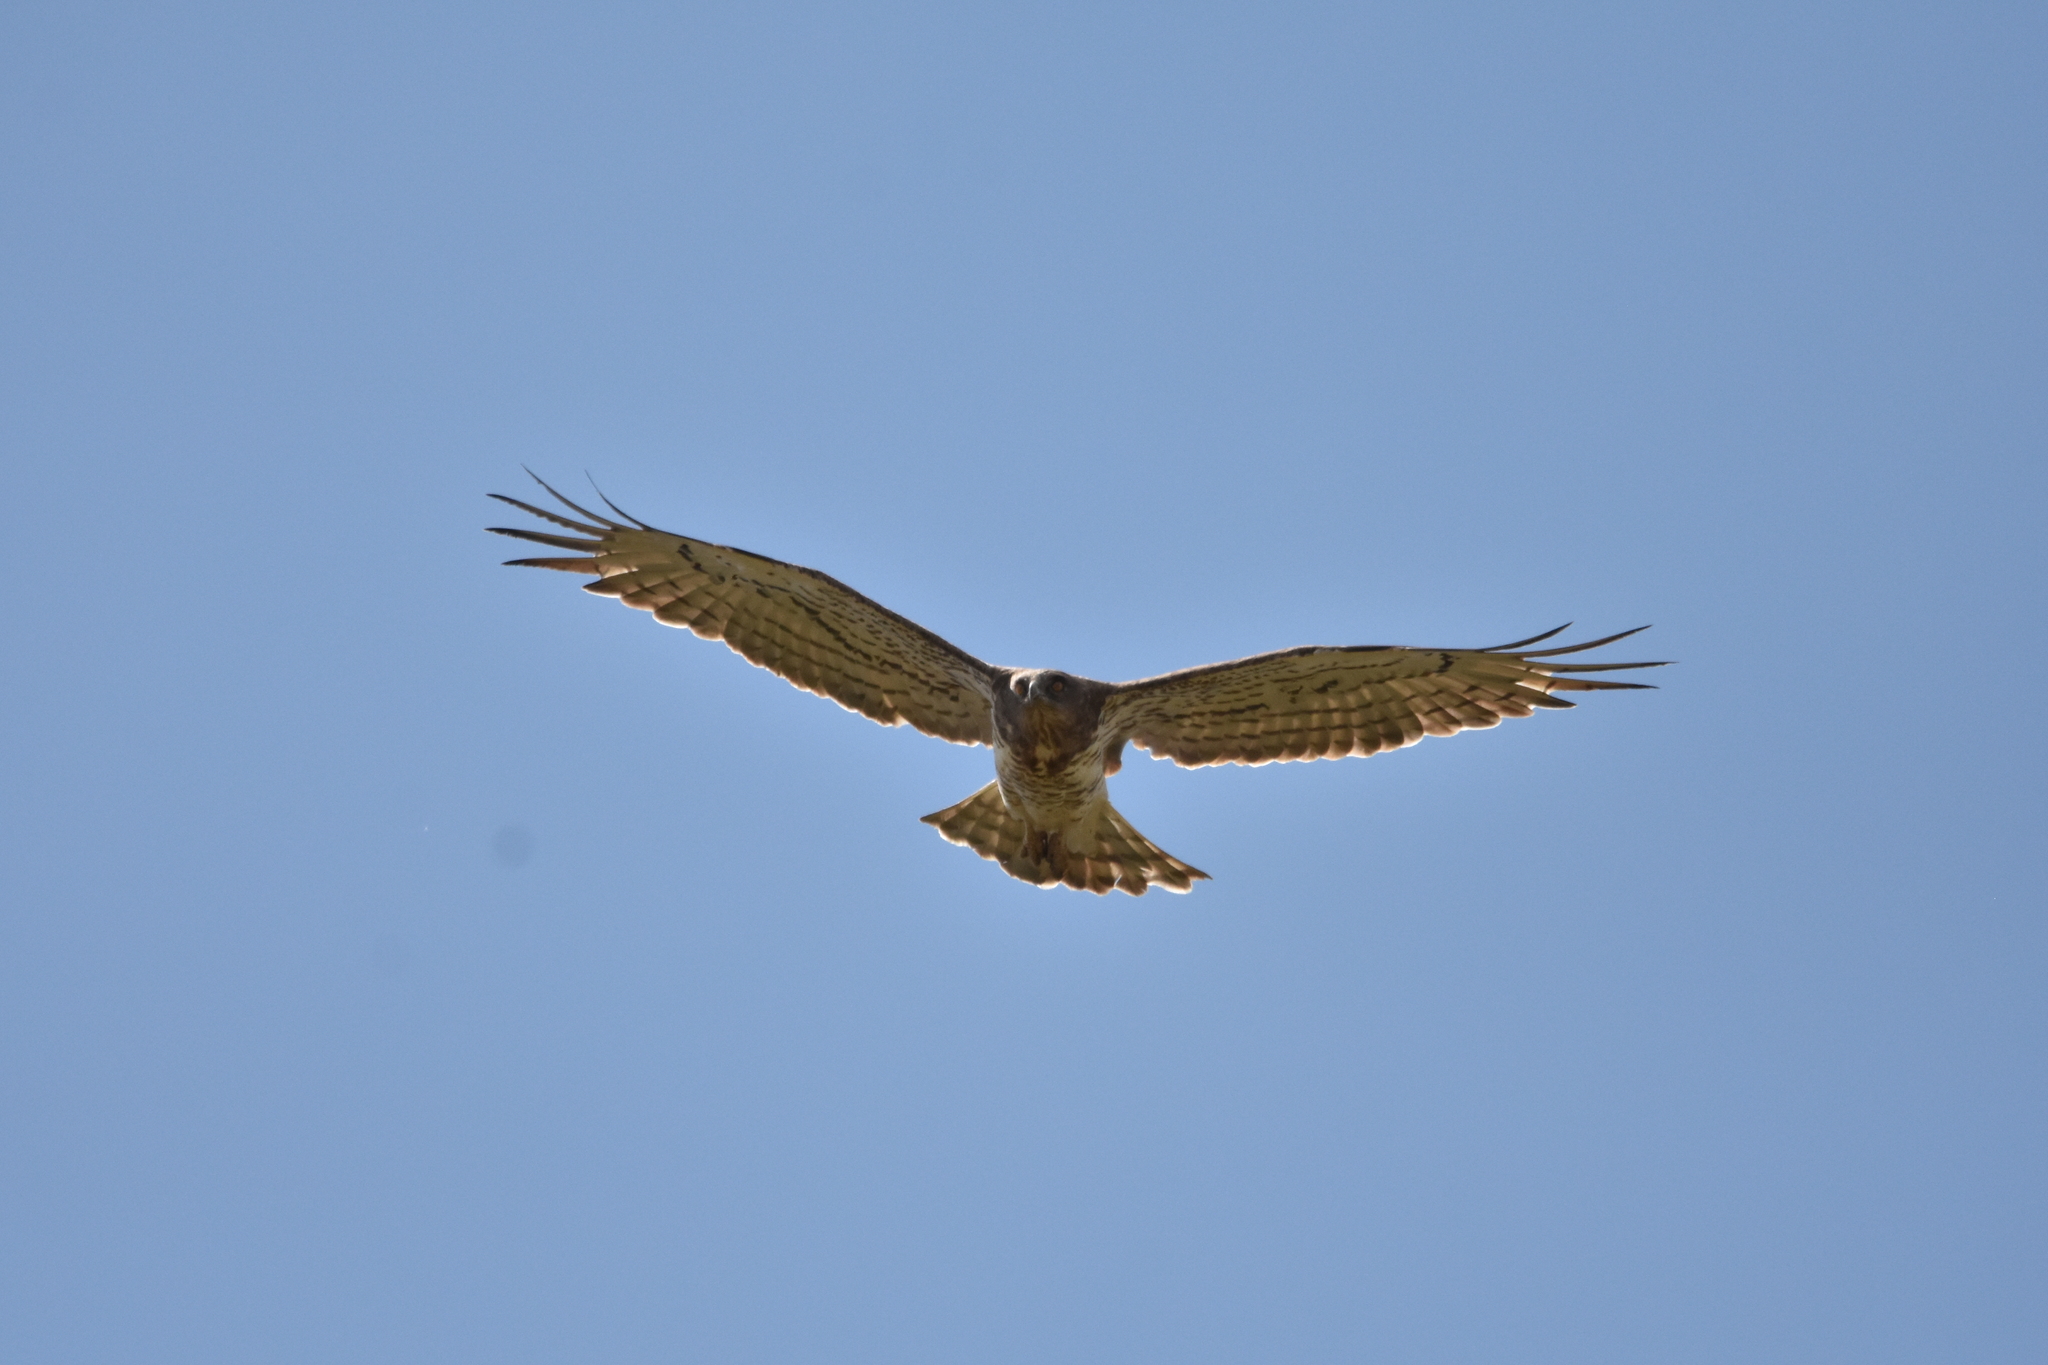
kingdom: Animalia
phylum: Chordata
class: Aves
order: Accipitriformes
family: Accipitridae
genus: Circaetus
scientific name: Circaetus gallicus
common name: Short-toed snake eagle
